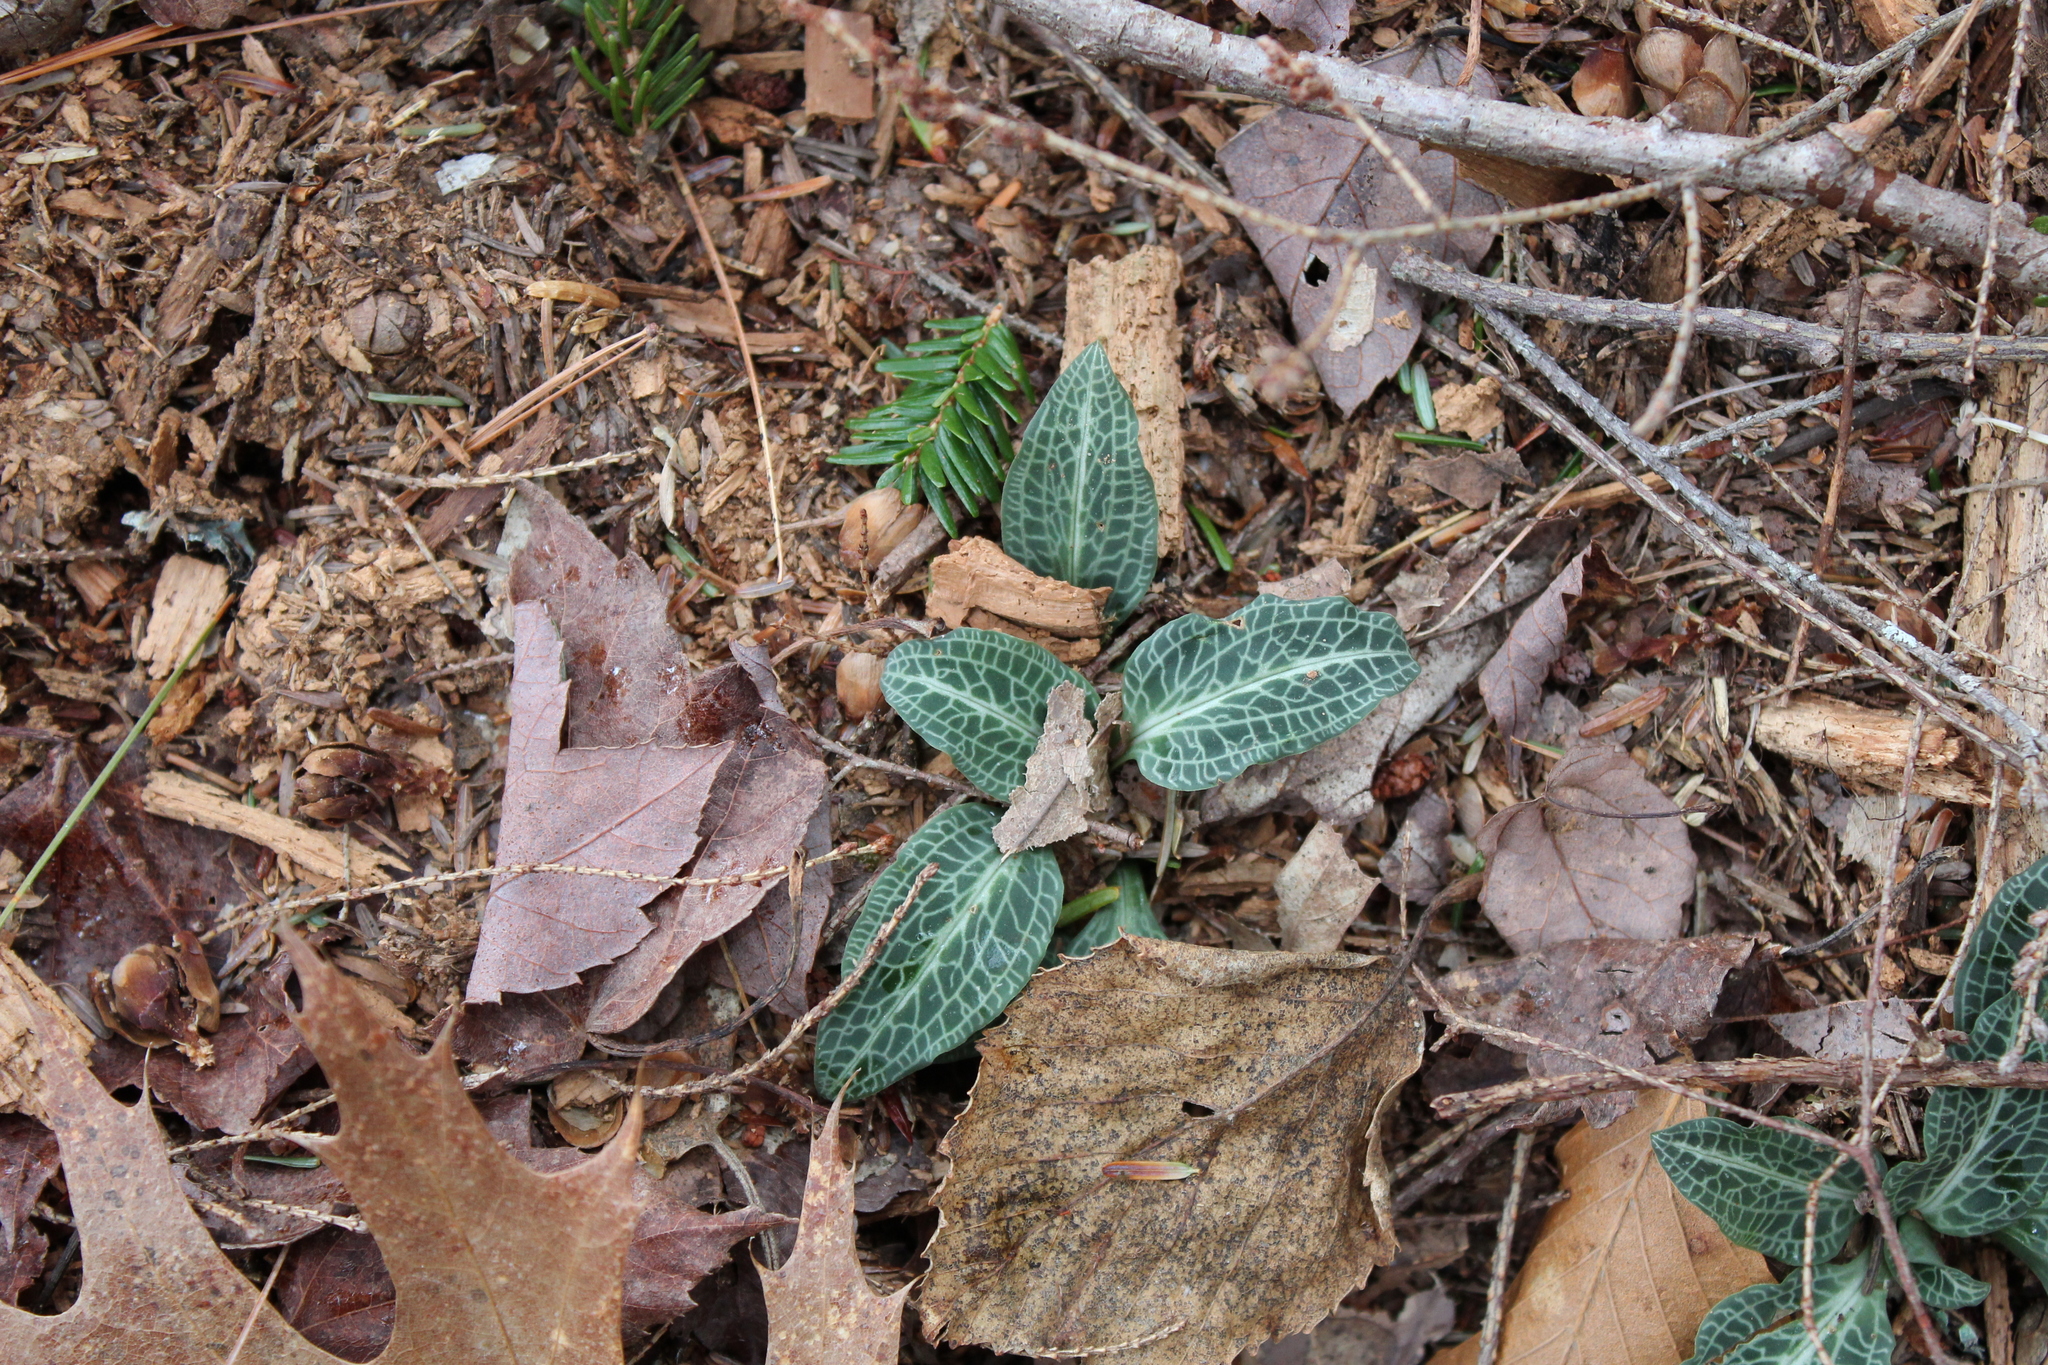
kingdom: Plantae
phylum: Tracheophyta
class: Liliopsida
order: Asparagales
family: Orchidaceae
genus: Goodyera
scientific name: Goodyera pubescens
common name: Downy rattlesnake-plantain
